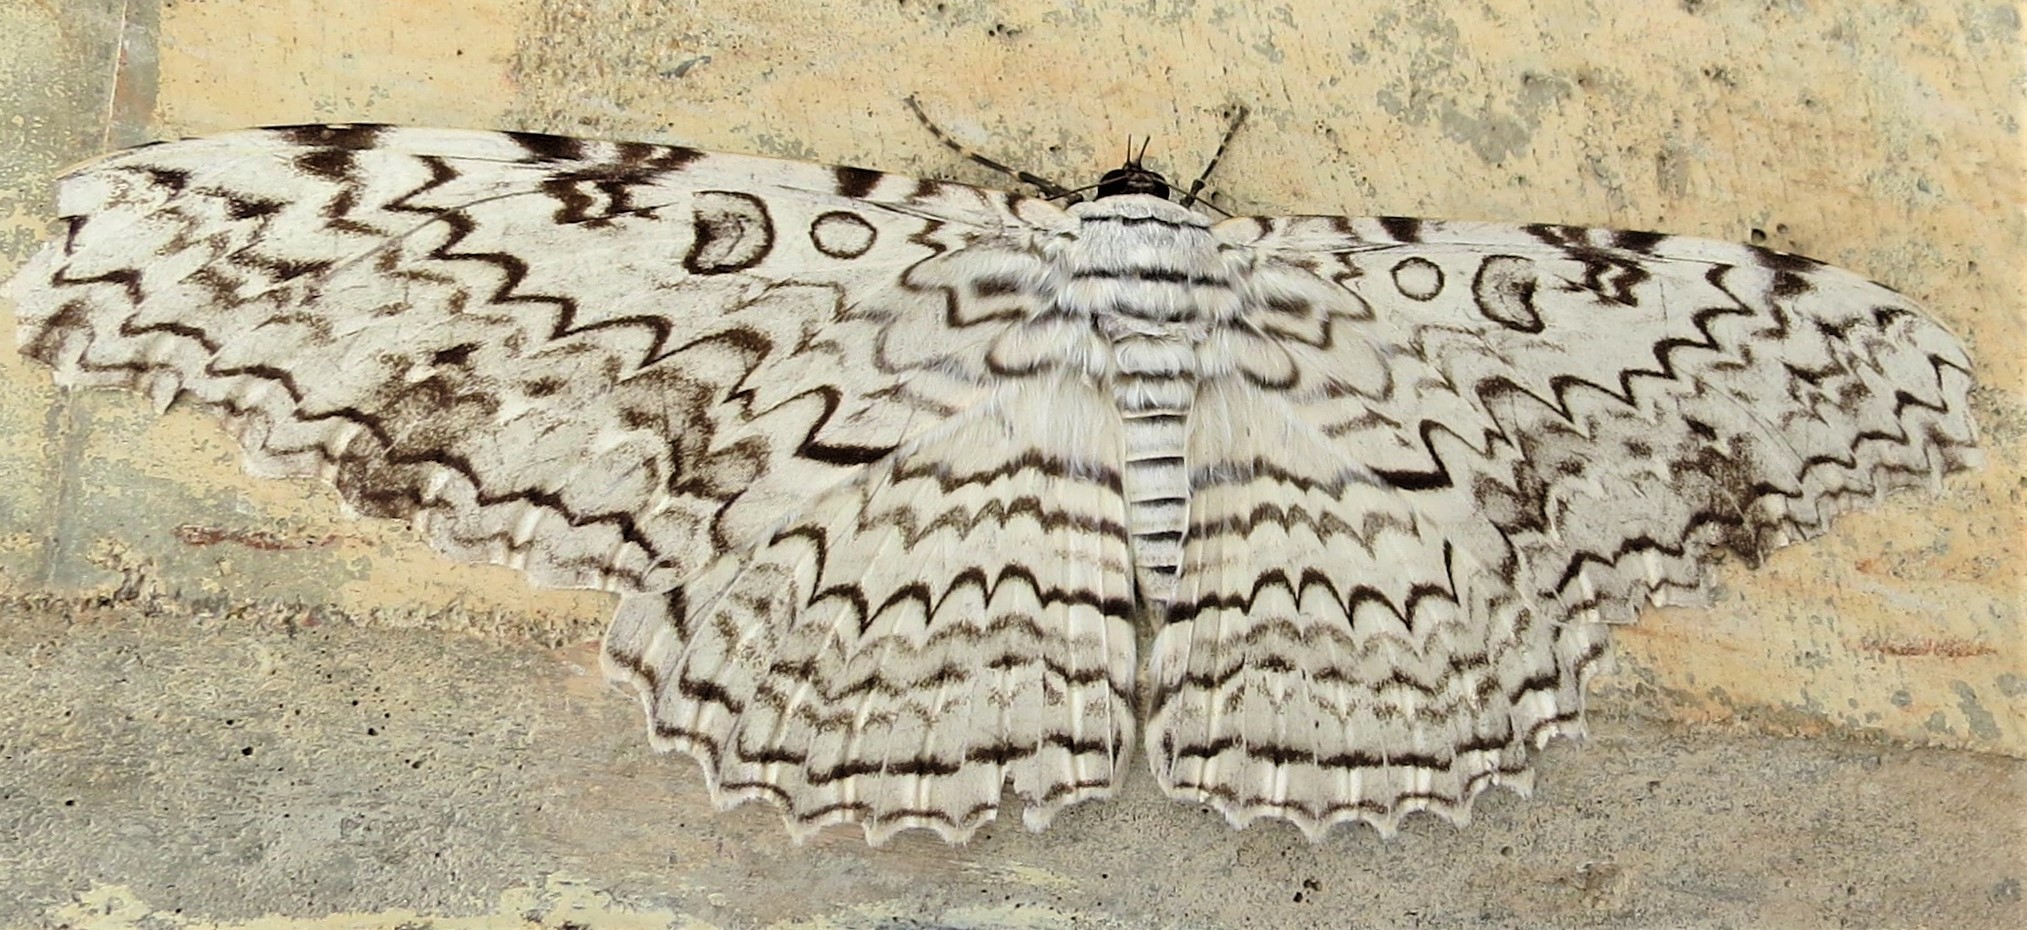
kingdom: Animalia
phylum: Arthropoda
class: Insecta
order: Lepidoptera
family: Erebidae
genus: Thysania
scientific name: Thysania agrippina
